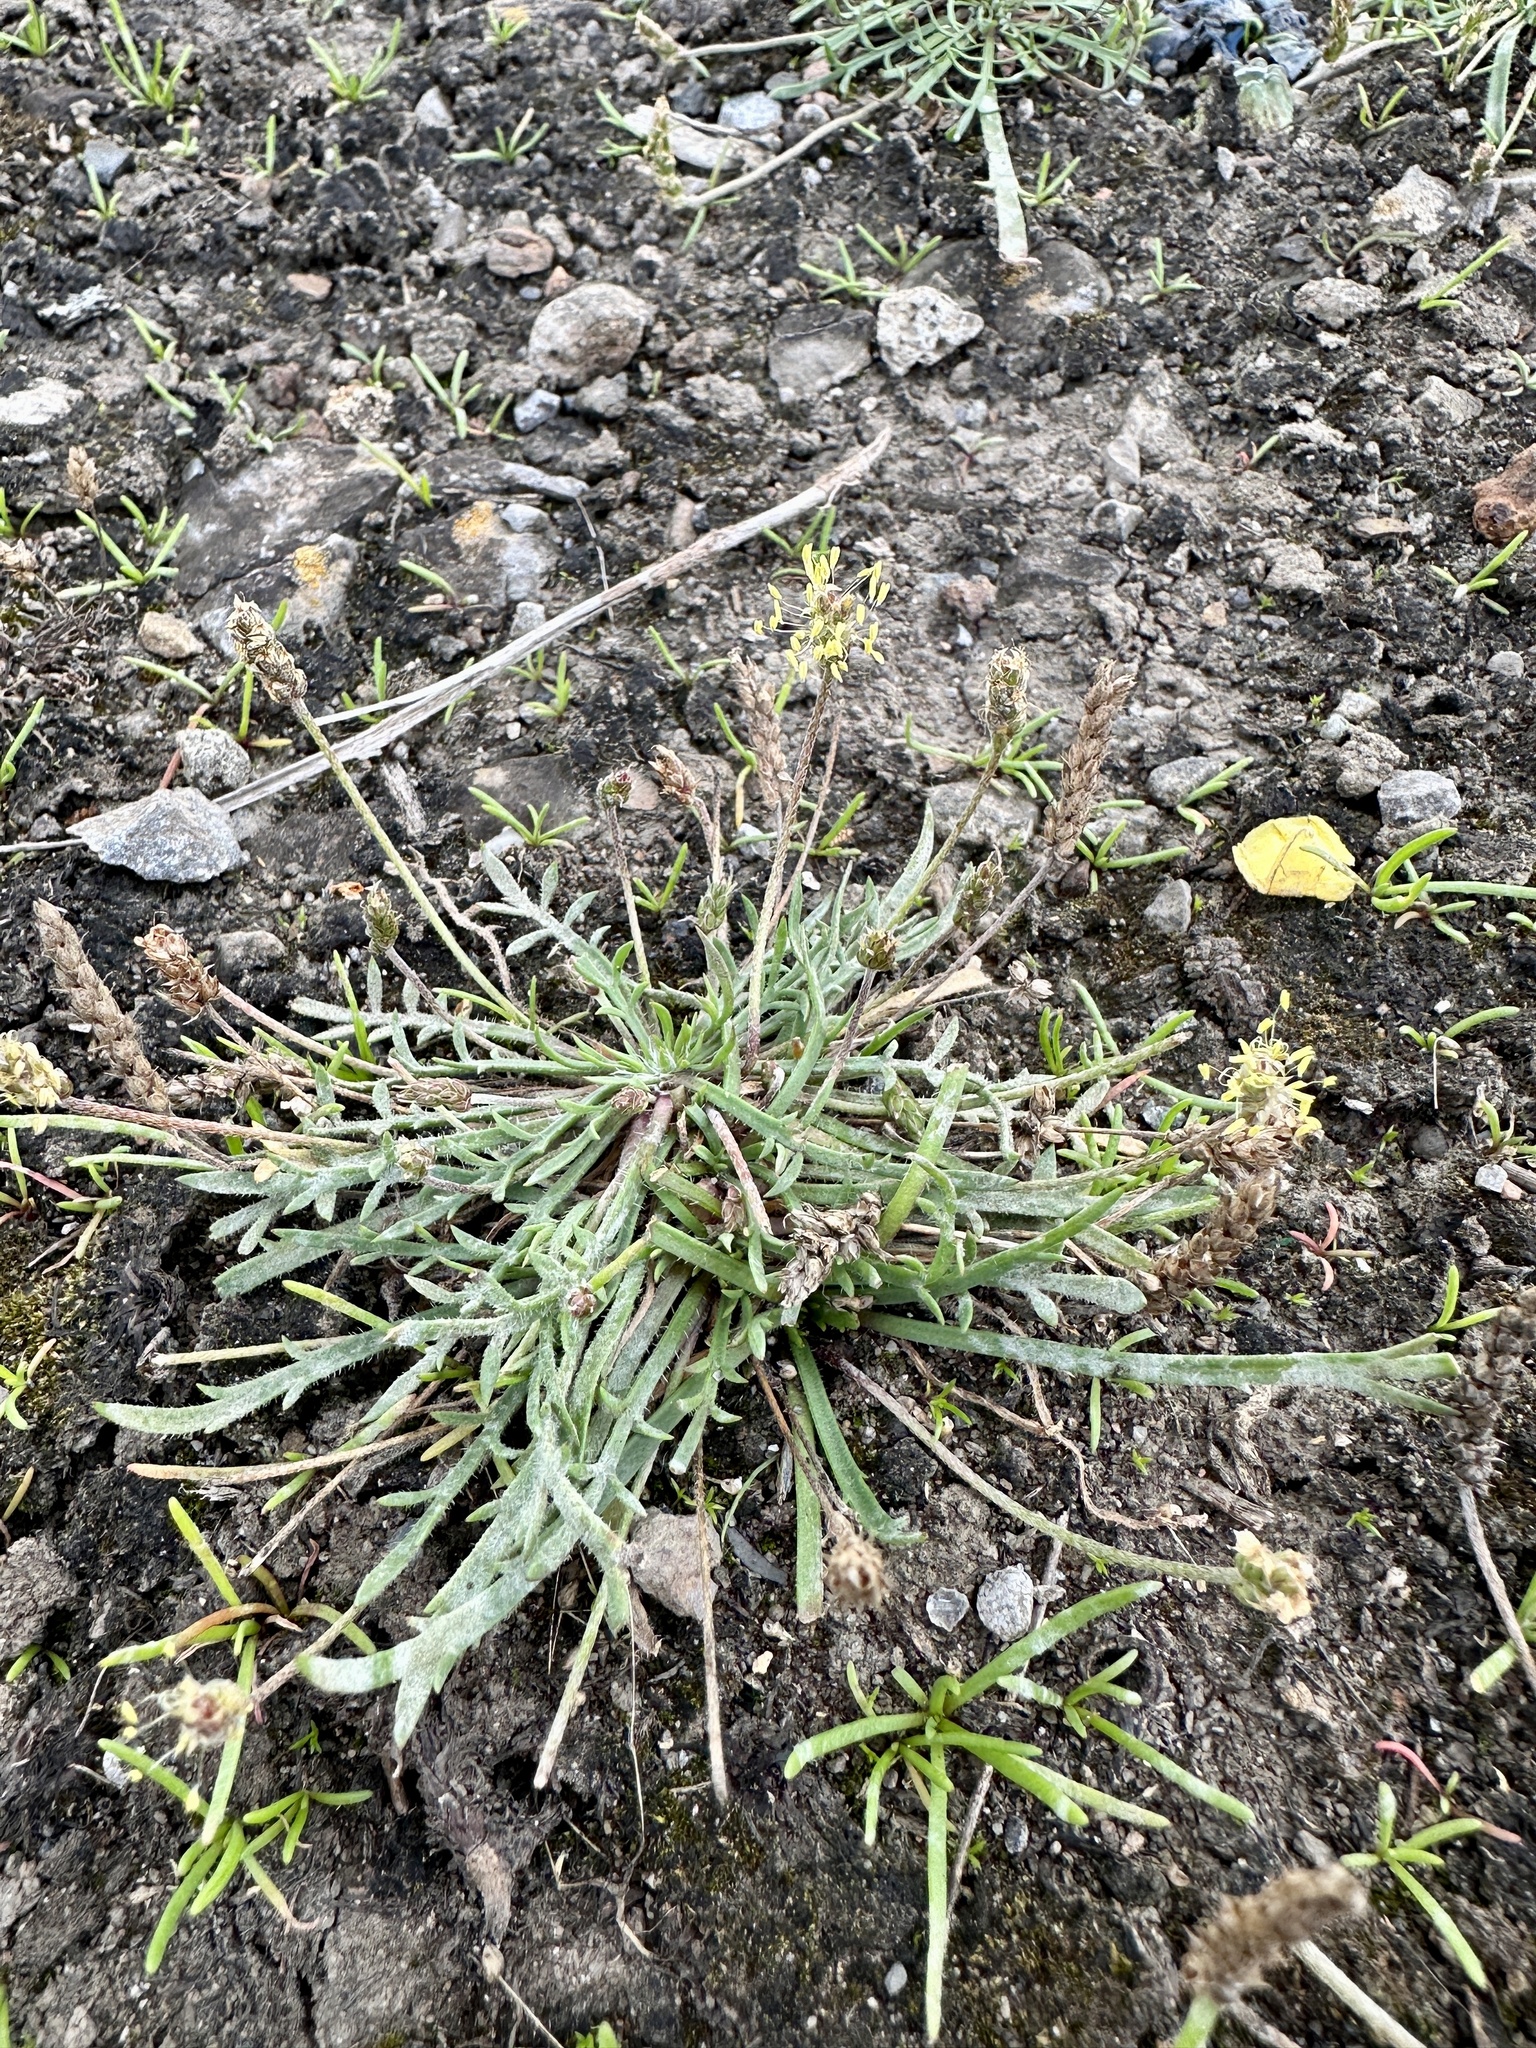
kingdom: Plantae
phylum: Tracheophyta
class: Magnoliopsida
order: Lamiales
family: Plantaginaceae
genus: Plantago
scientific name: Plantago coronopus
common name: Buck's-horn plantain
